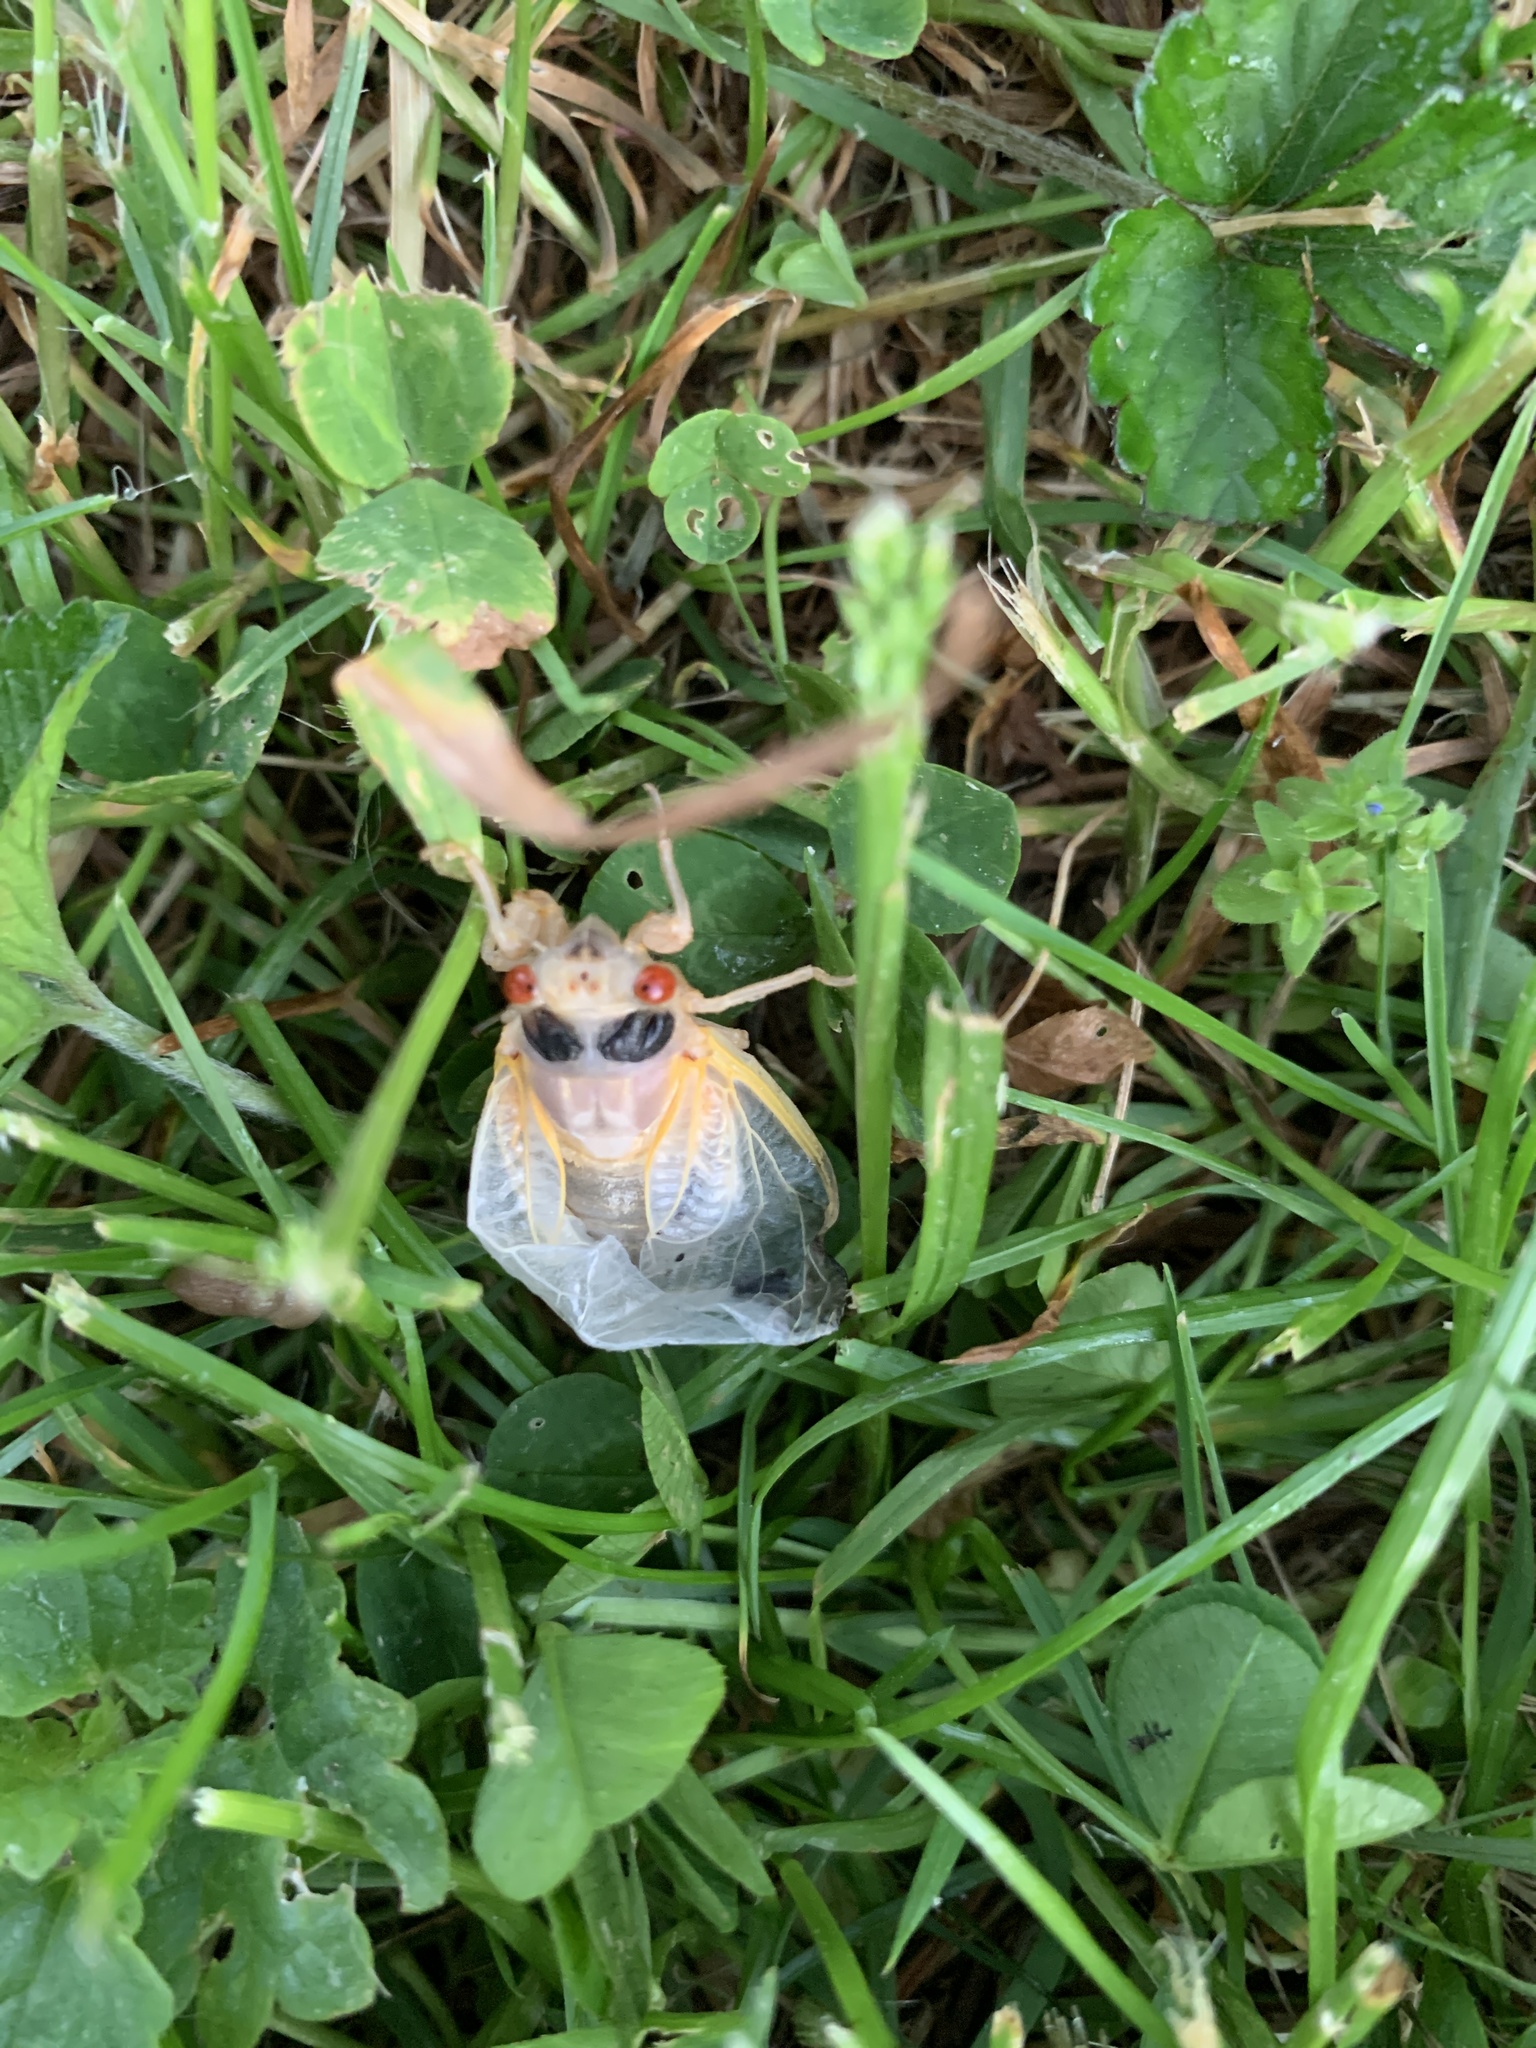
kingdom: Animalia
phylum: Arthropoda
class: Insecta
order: Hemiptera
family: Cicadidae
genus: Magicicada
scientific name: Magicicada
